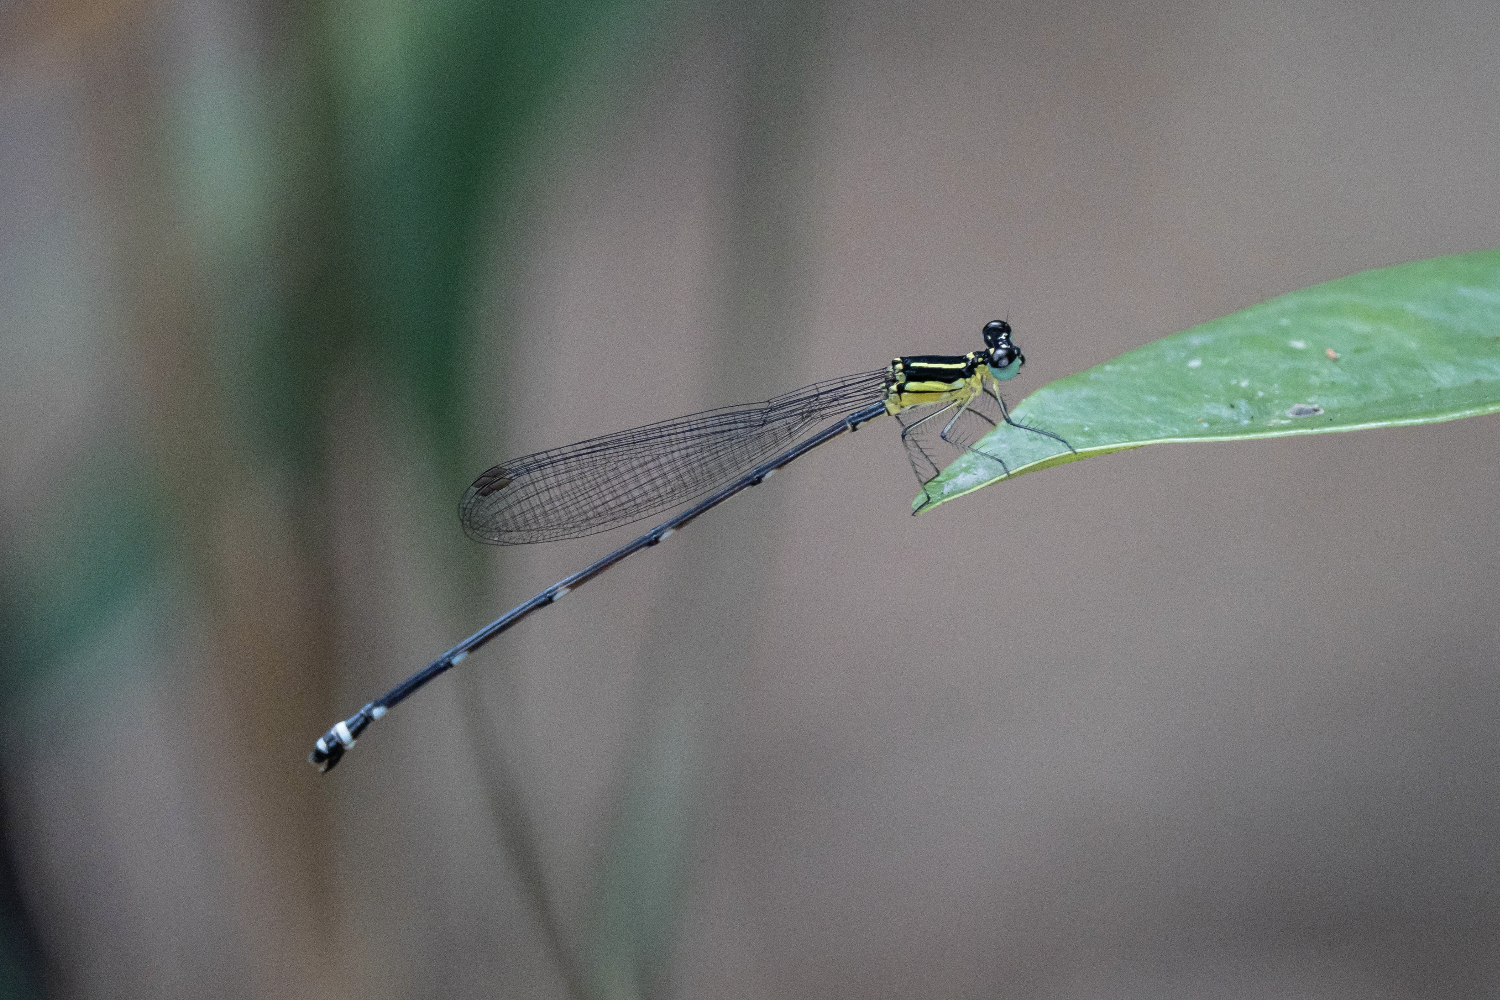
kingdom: Animalia
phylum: Arthropoda
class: Insecta
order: Odonata
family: Platycnemididae
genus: Coeliccia
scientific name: Coeliccia cyanomelas
